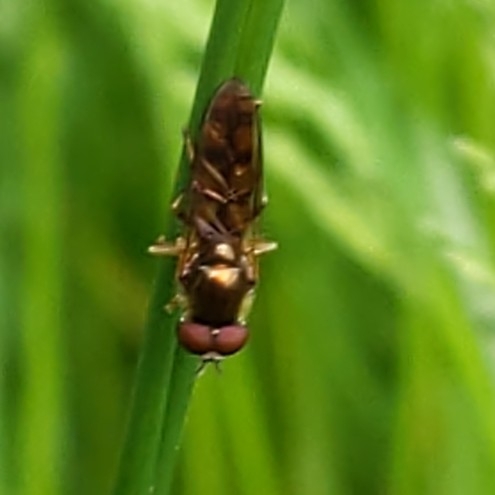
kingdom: Animalia
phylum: Arthropoda
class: Insecta
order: Diptera
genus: Bacchina
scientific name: Bacchina
